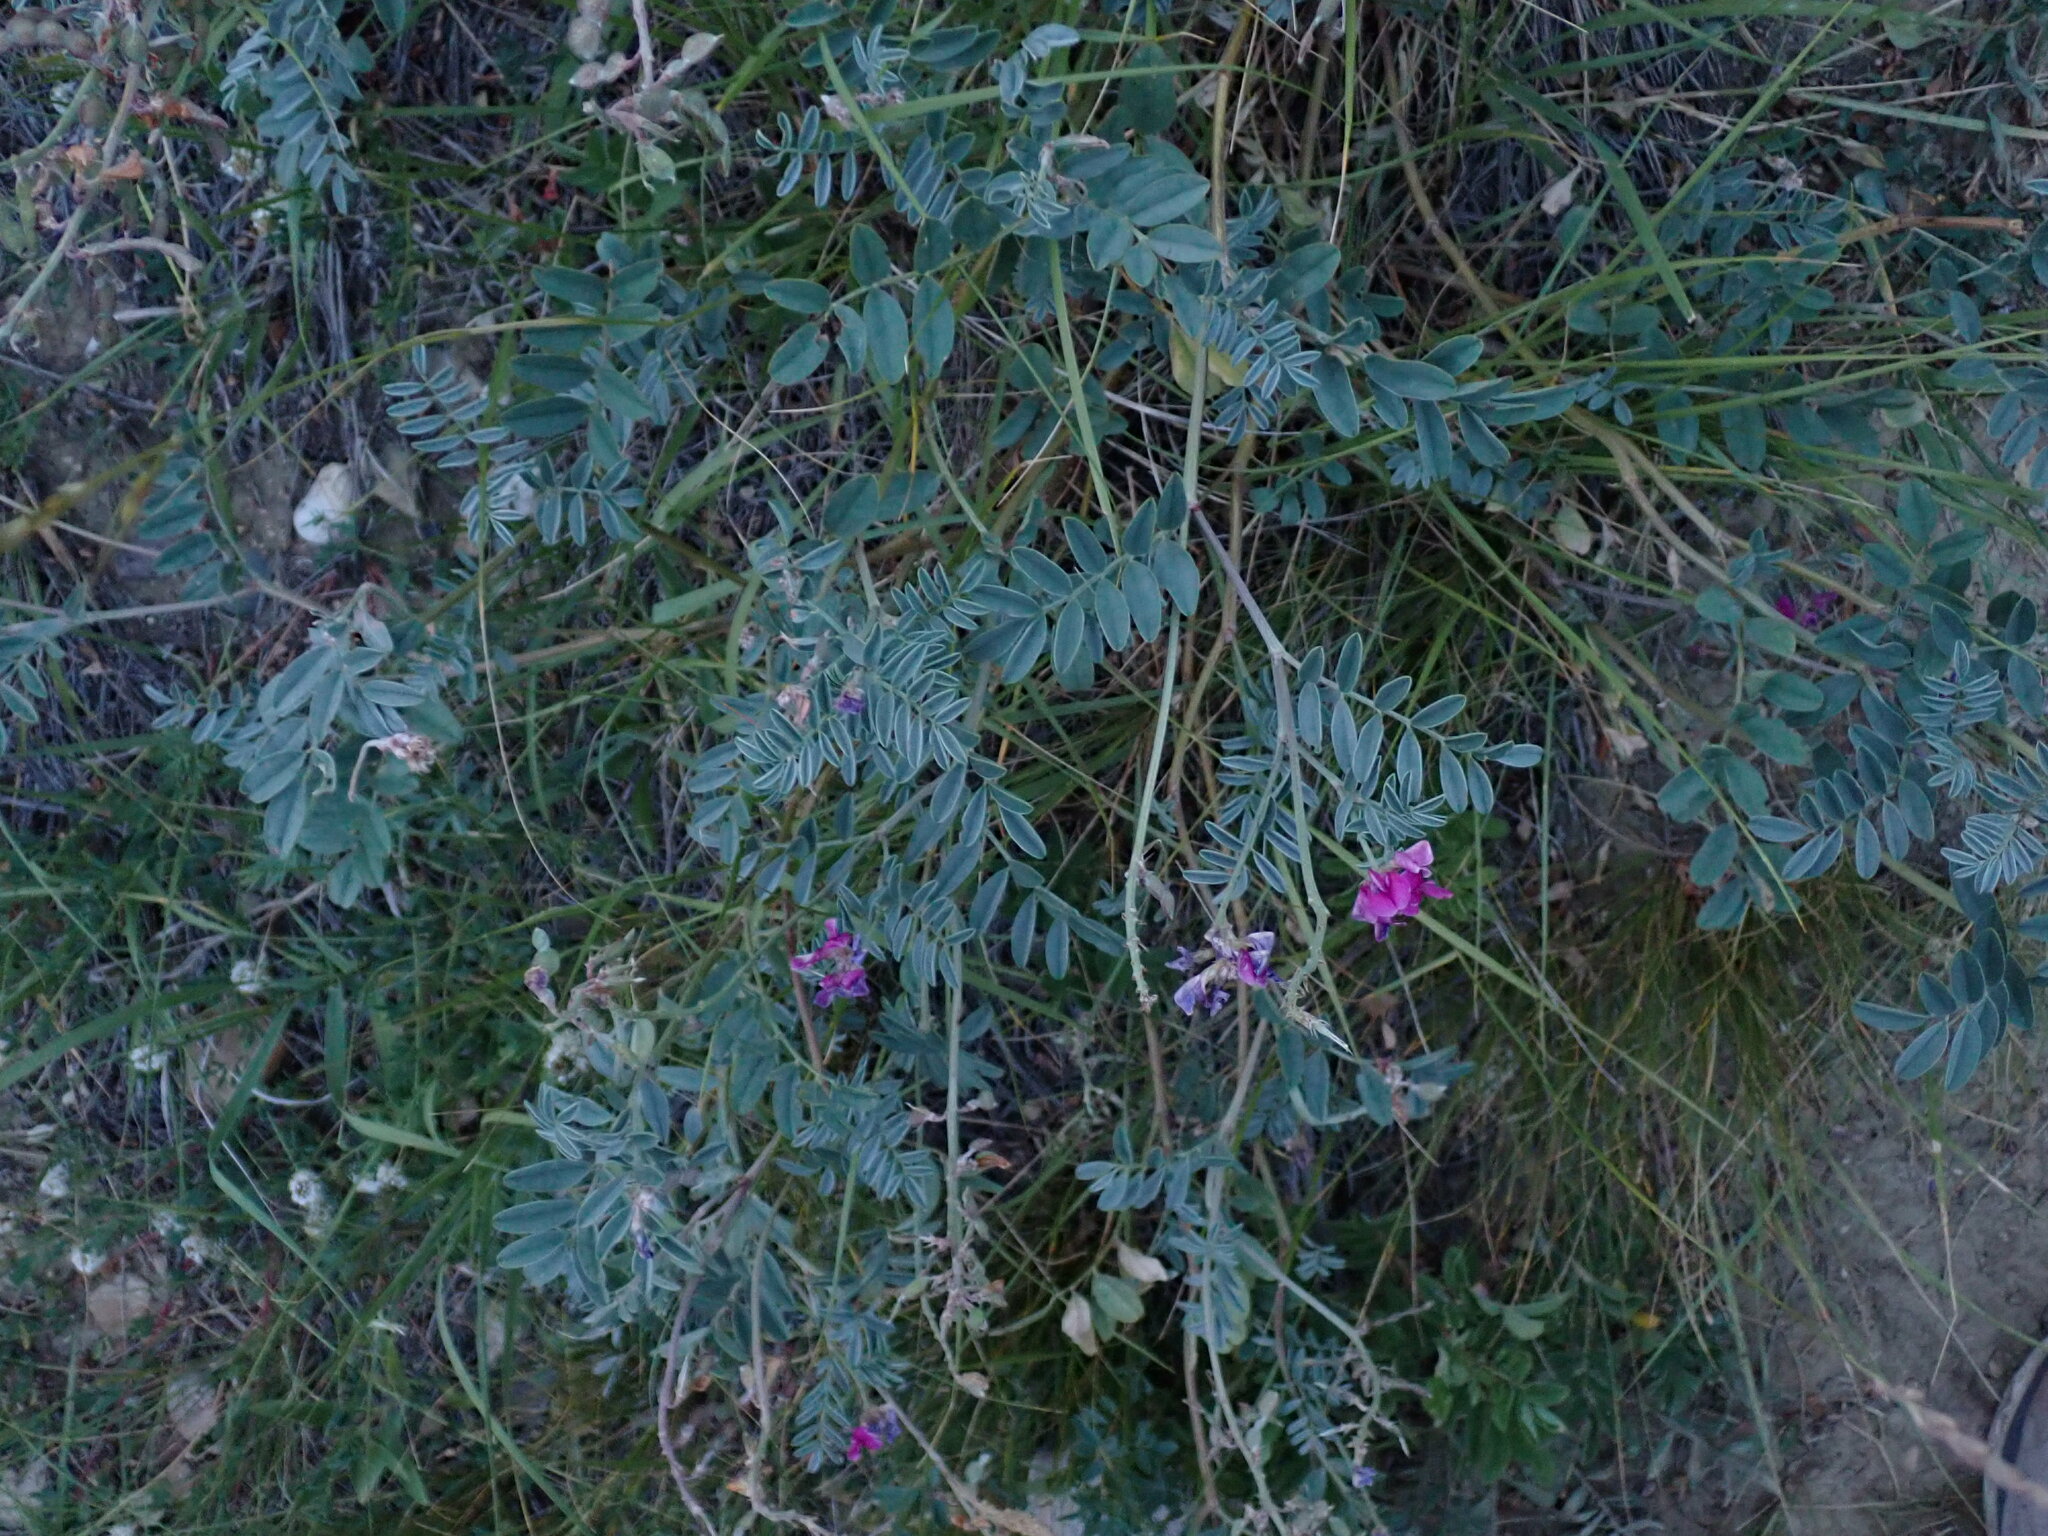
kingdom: Plantae
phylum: Tracheophyta
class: Magnoliopsida
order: Fabales
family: Fabaceae
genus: Hedysarum
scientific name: Hedysarum boreale
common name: Northern sweet-vetch
